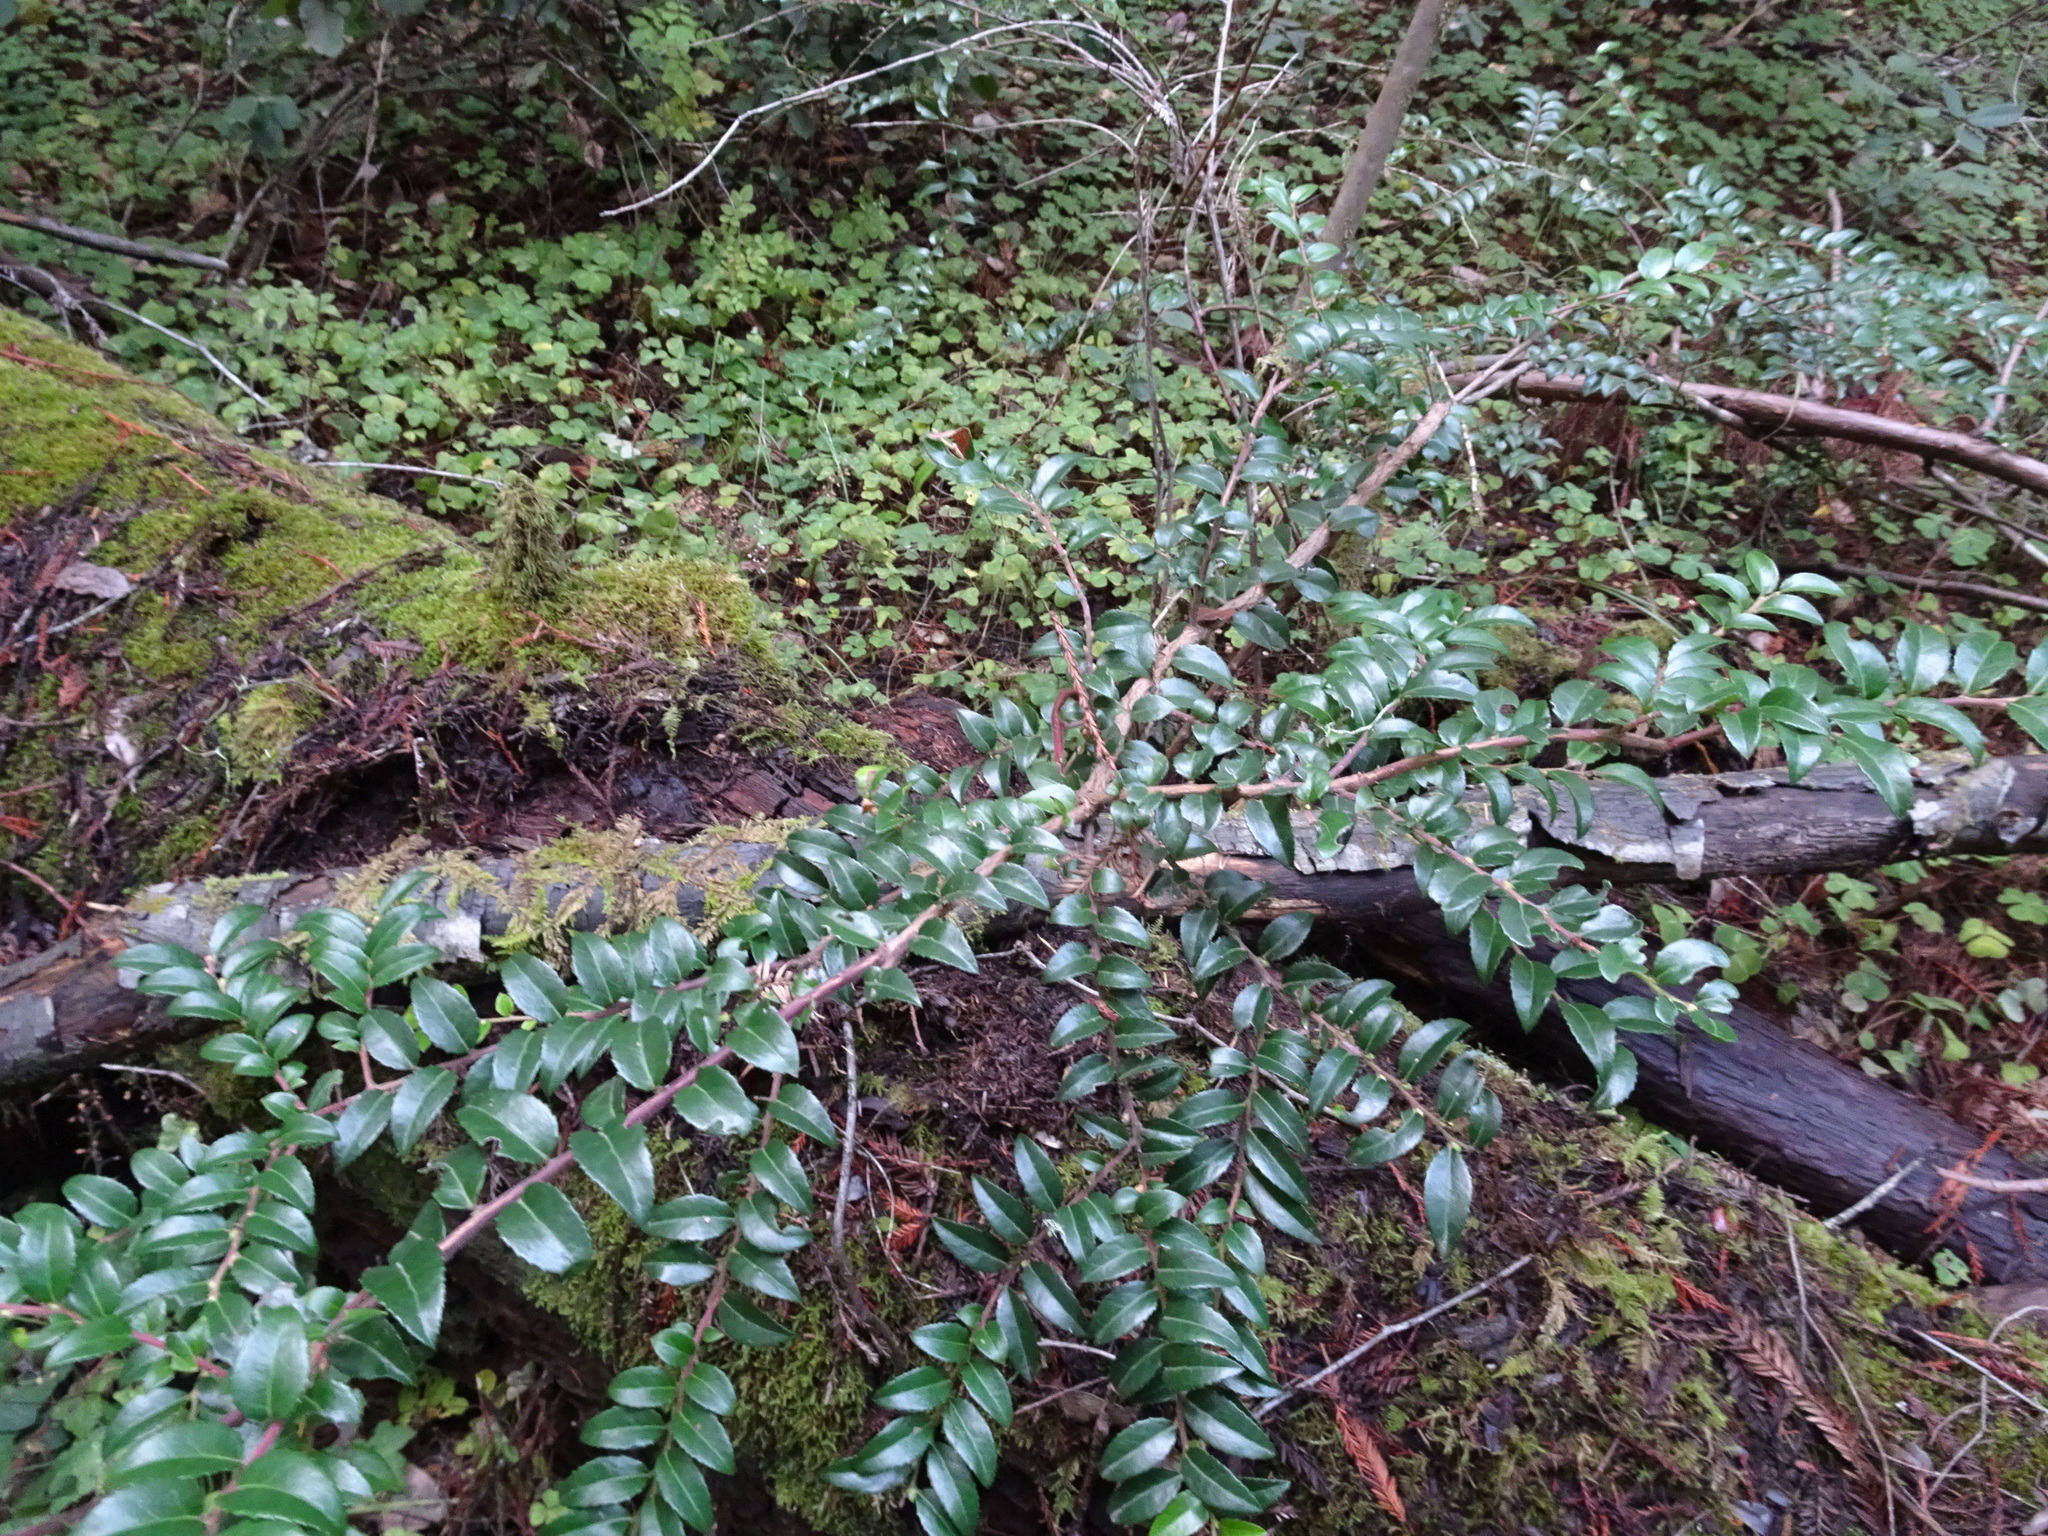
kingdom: Plantae
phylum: Tracheophyta
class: Magnoliopsida
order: Ericales
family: Ericaceae
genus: Vaccinium
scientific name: Vaccinium ovatum
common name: California-huckleberry
